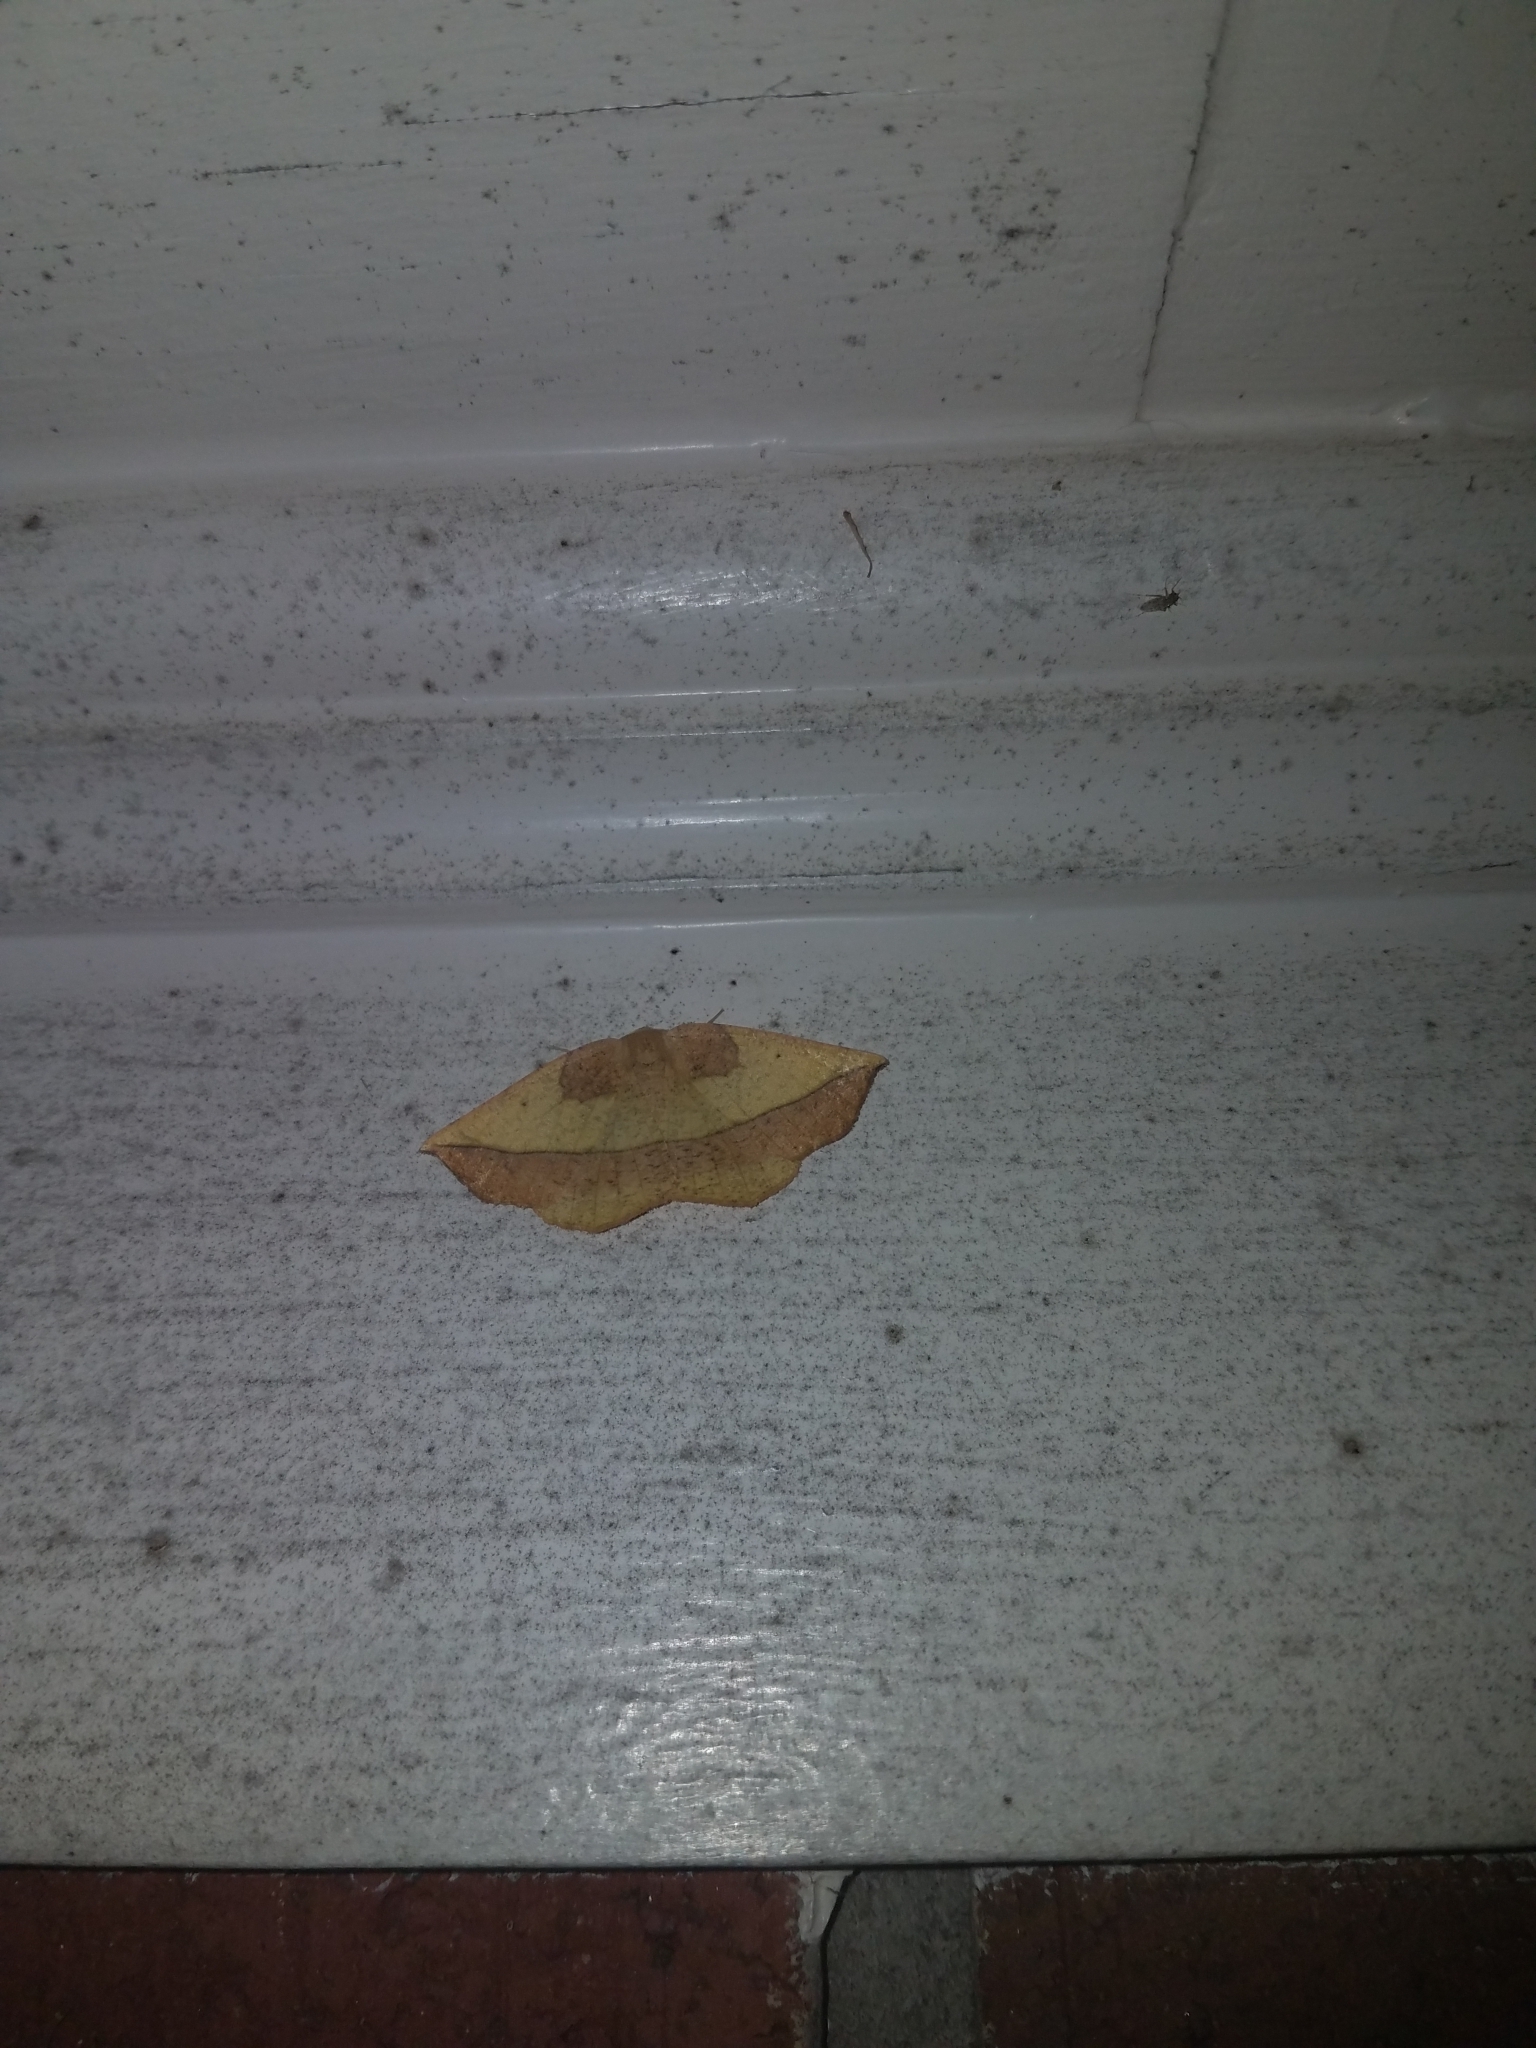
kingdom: Animalia
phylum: Arthropoda
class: Insecta
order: Lepidoptera
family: Geometridae
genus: Eusarca
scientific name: Eusarca fundaria
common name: Dark-edged eusarca moth
